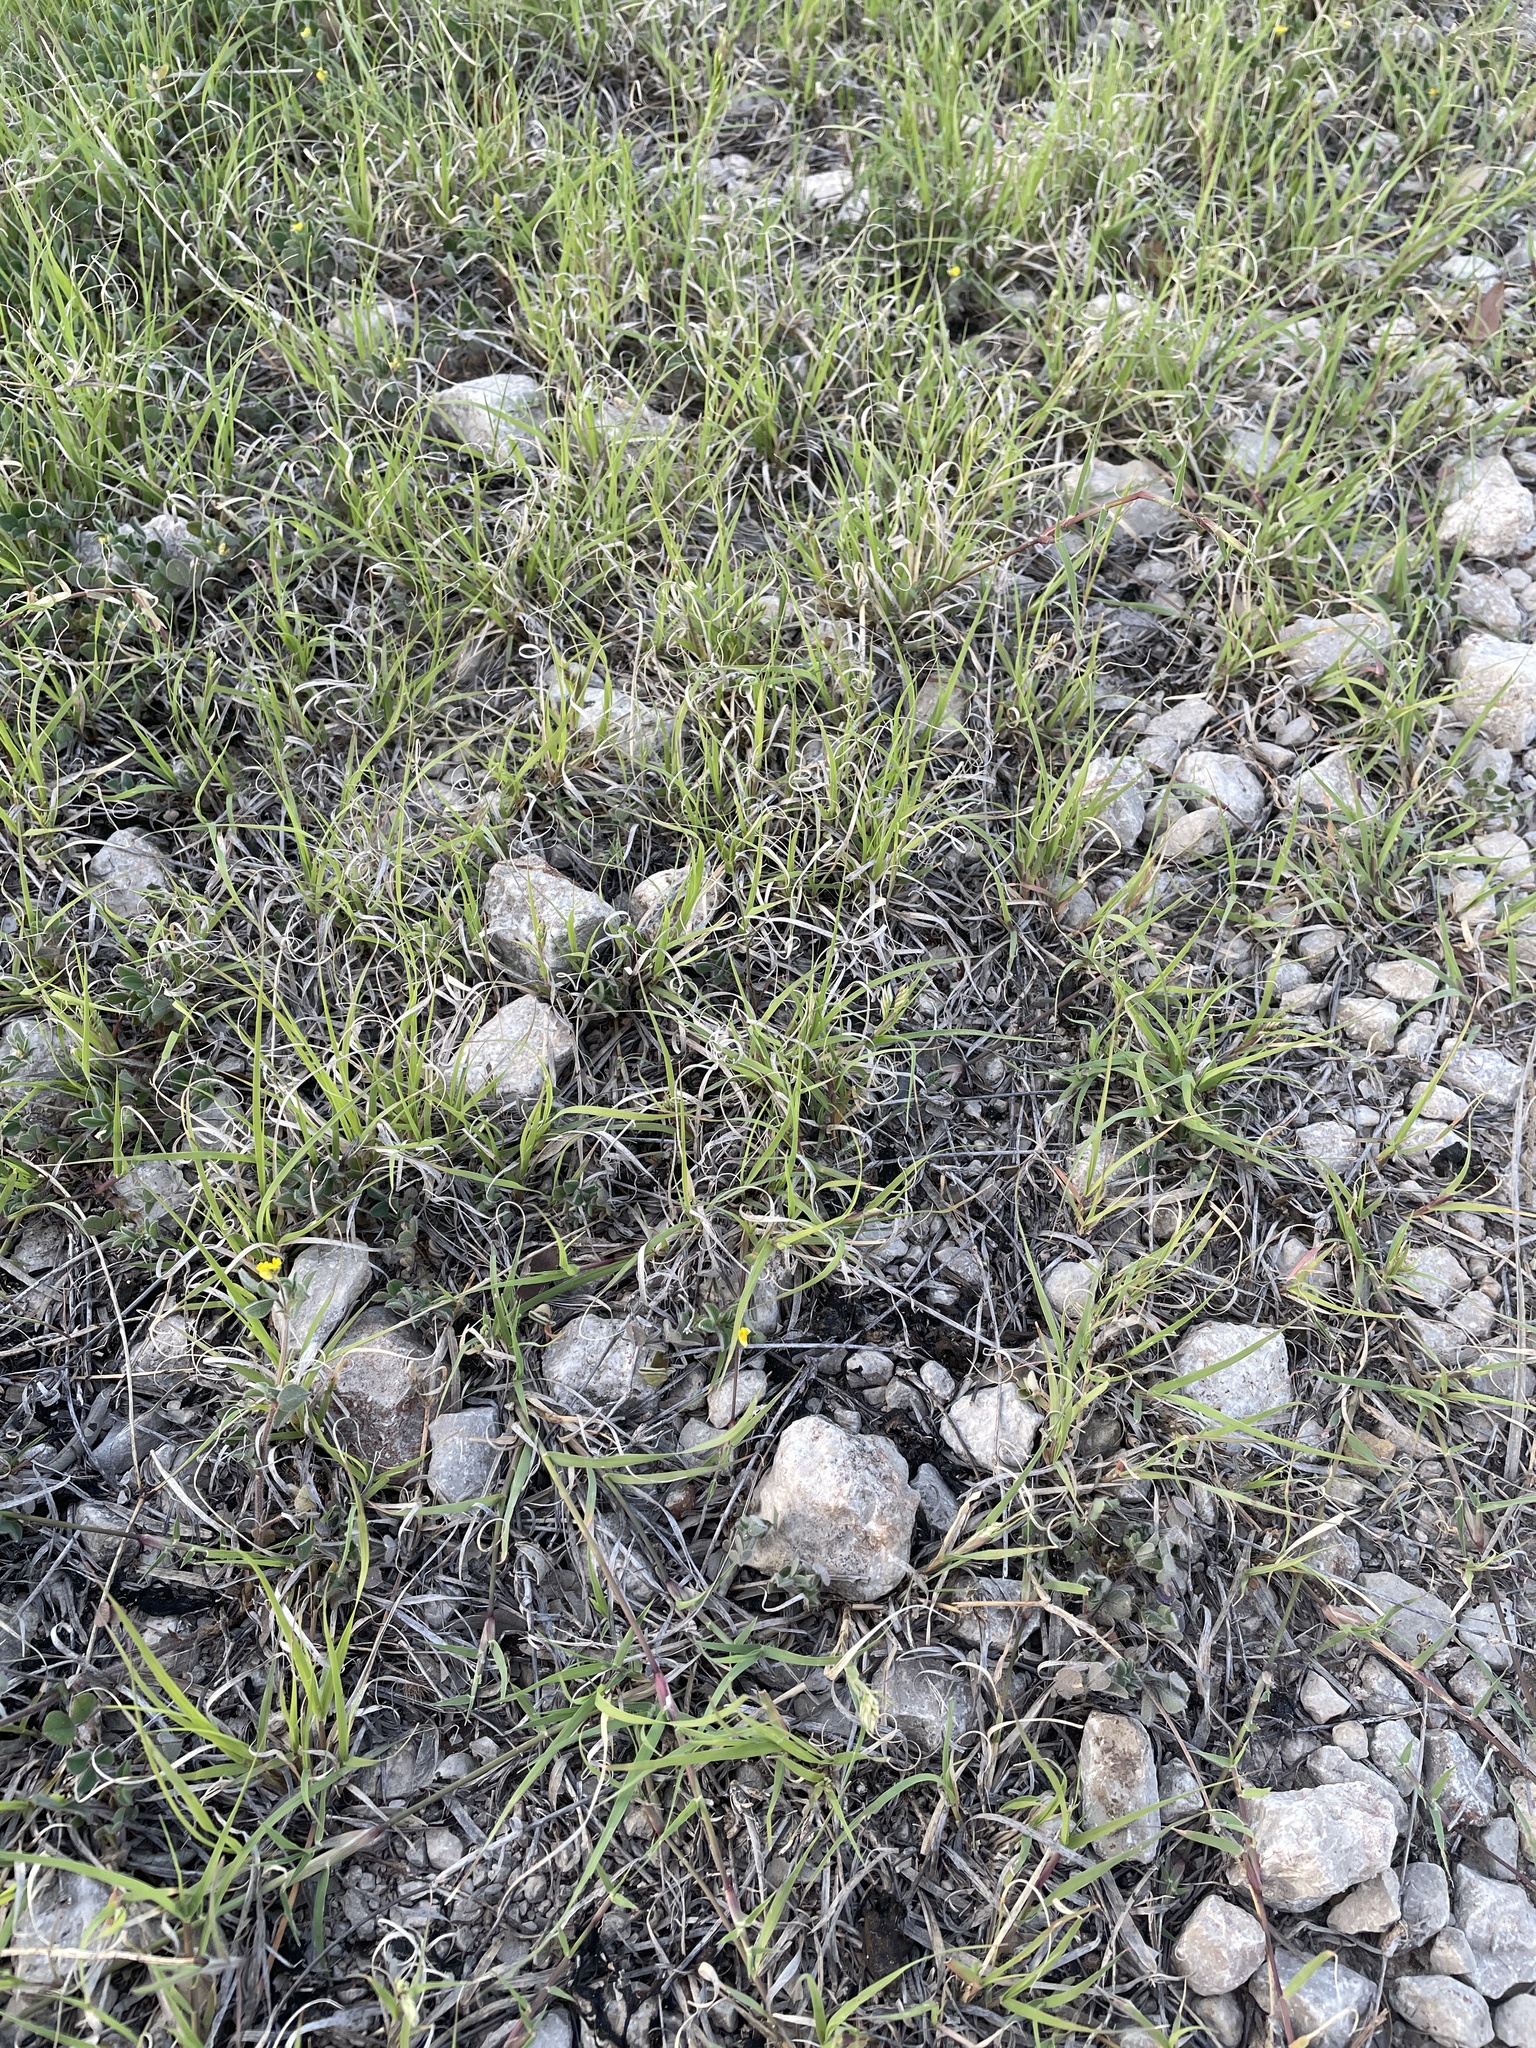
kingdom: Plantae
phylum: Tracheophyta
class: Liliopsida
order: Poales
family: Poaceae
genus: Bouteloua
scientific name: Bouteloua dactyloides
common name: Buffalo grass
